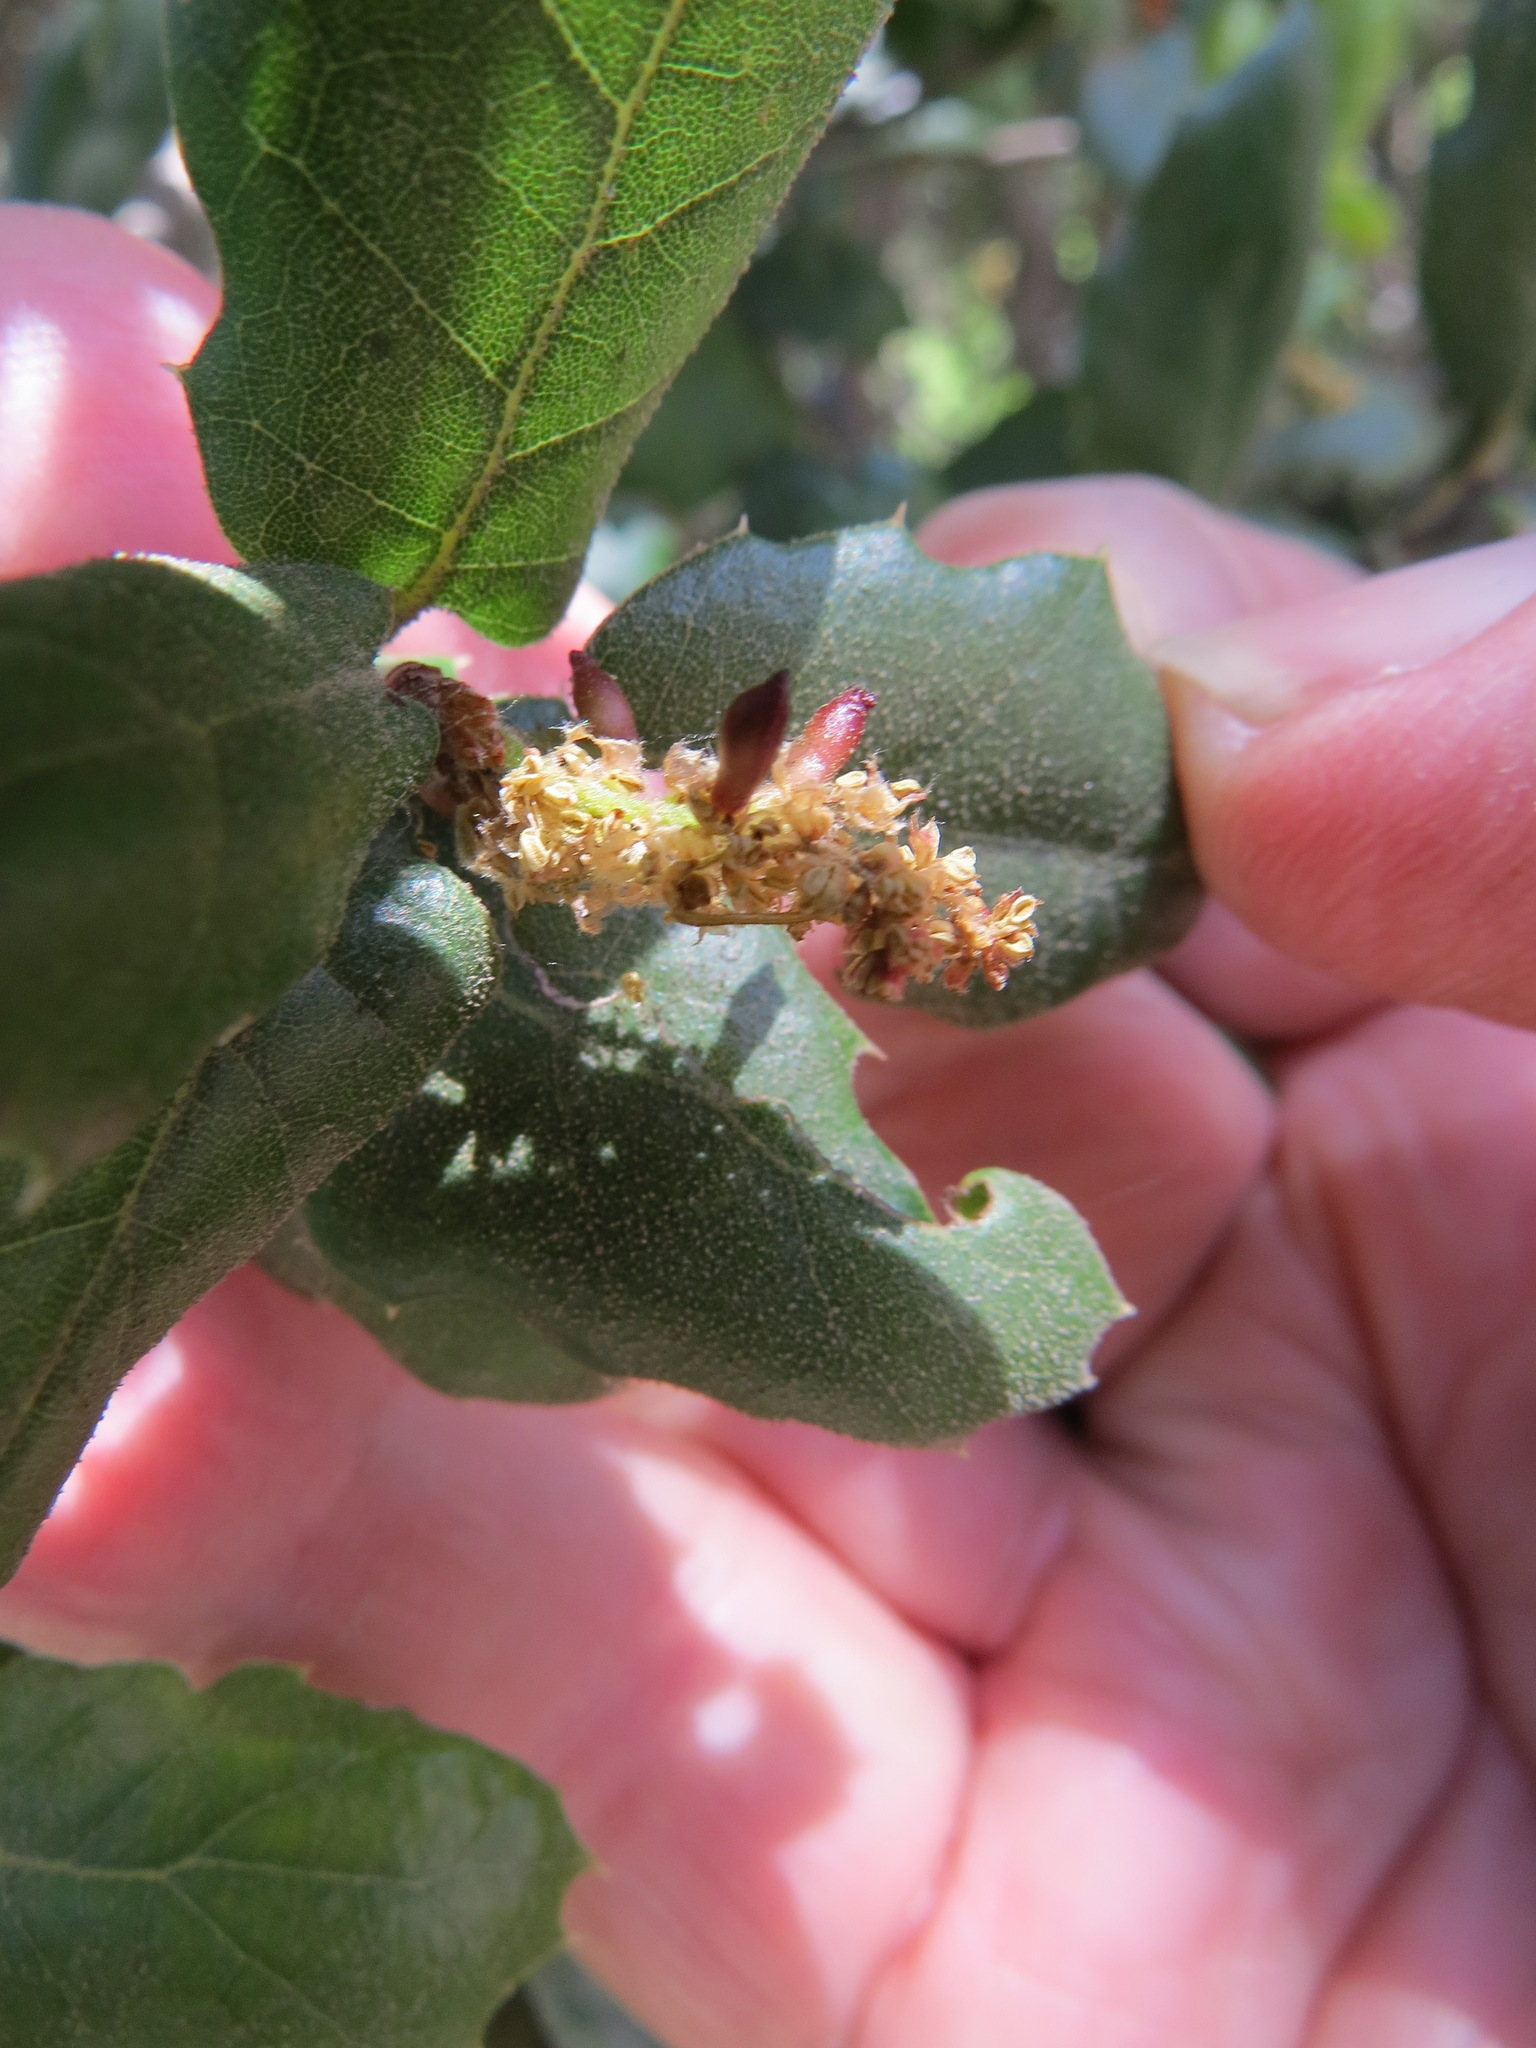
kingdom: Animalia
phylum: Arthropoda
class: Insecta
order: Hymenoptera
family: Cynipidae
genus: Dryocosmus
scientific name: Dryocosmus
